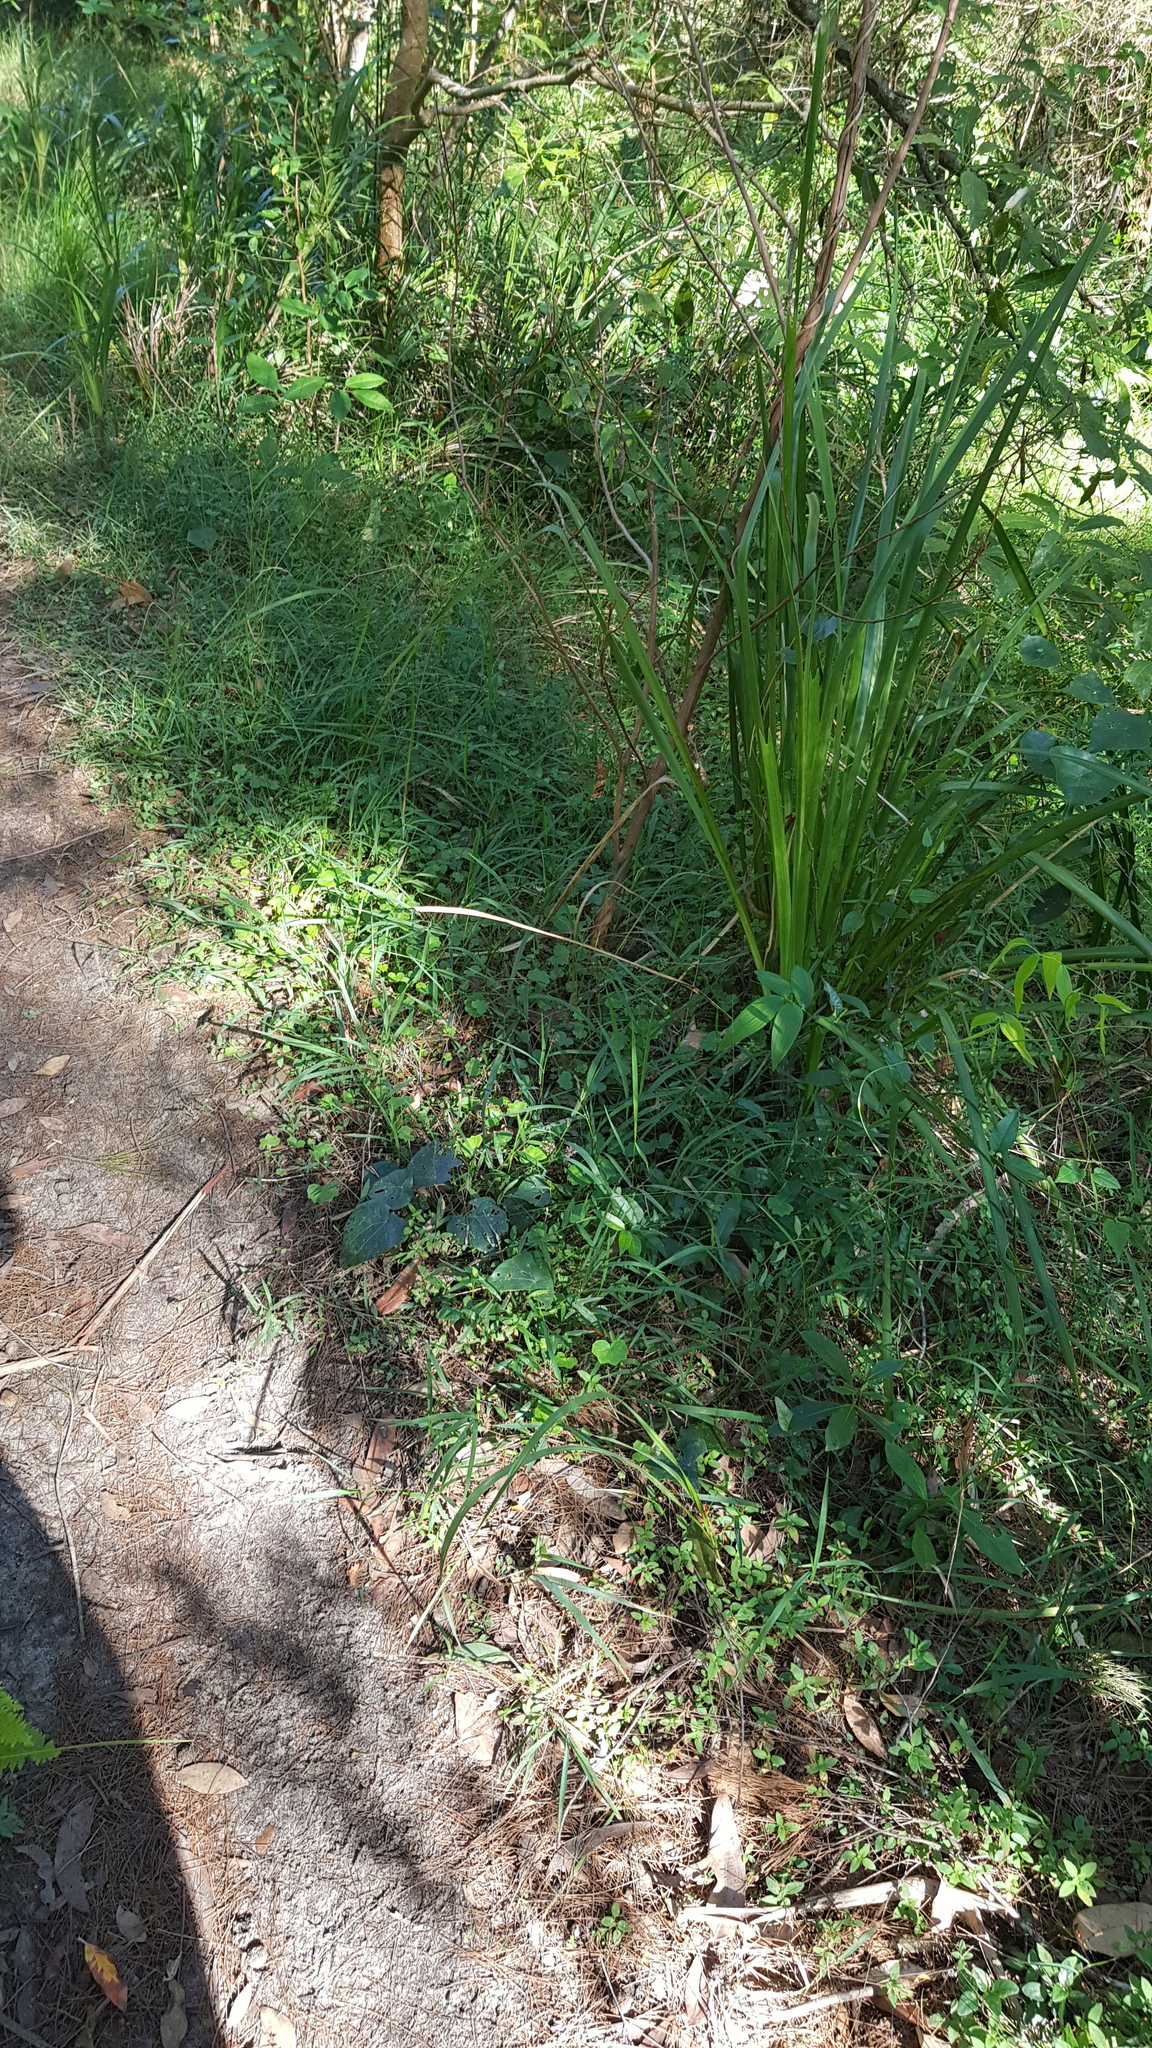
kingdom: Animalia
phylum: Arthropoda
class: Insecta
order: Lepidoptera
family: Nymphalidae
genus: Heteronympha
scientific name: Heteronympha mirifica
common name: Wonder brown
